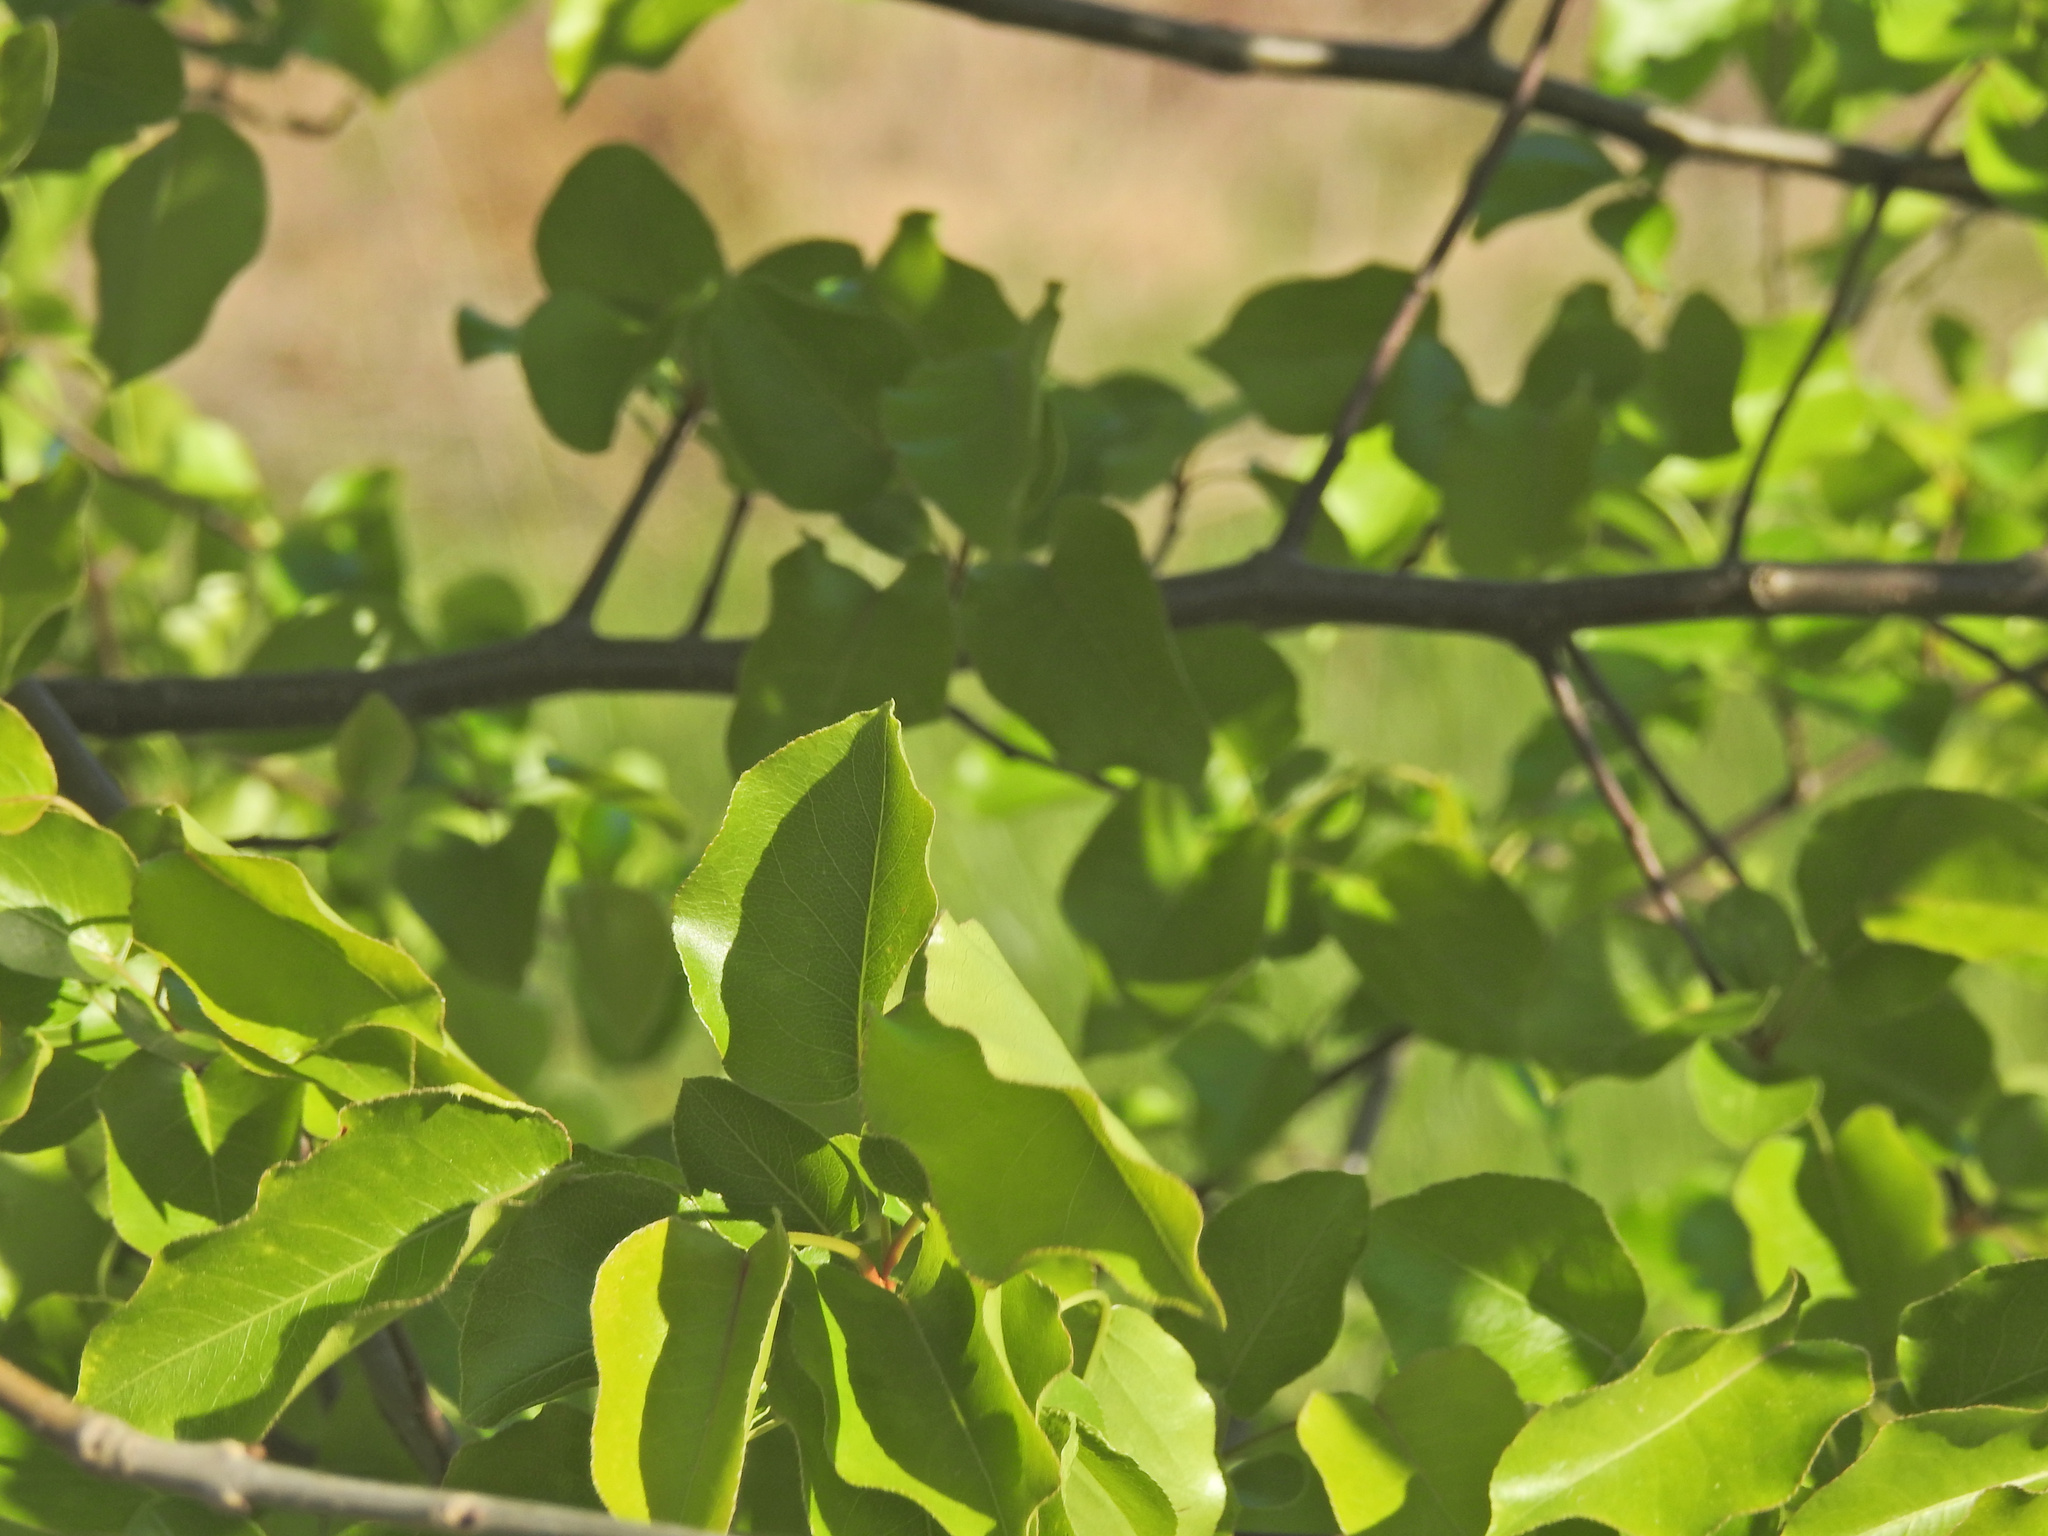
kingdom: Plantae
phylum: Tracheophyta
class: Magnoliopsida
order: Rosales
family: Rosaceae
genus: Pyrus
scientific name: Pyrus calleryana
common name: Callery pear
